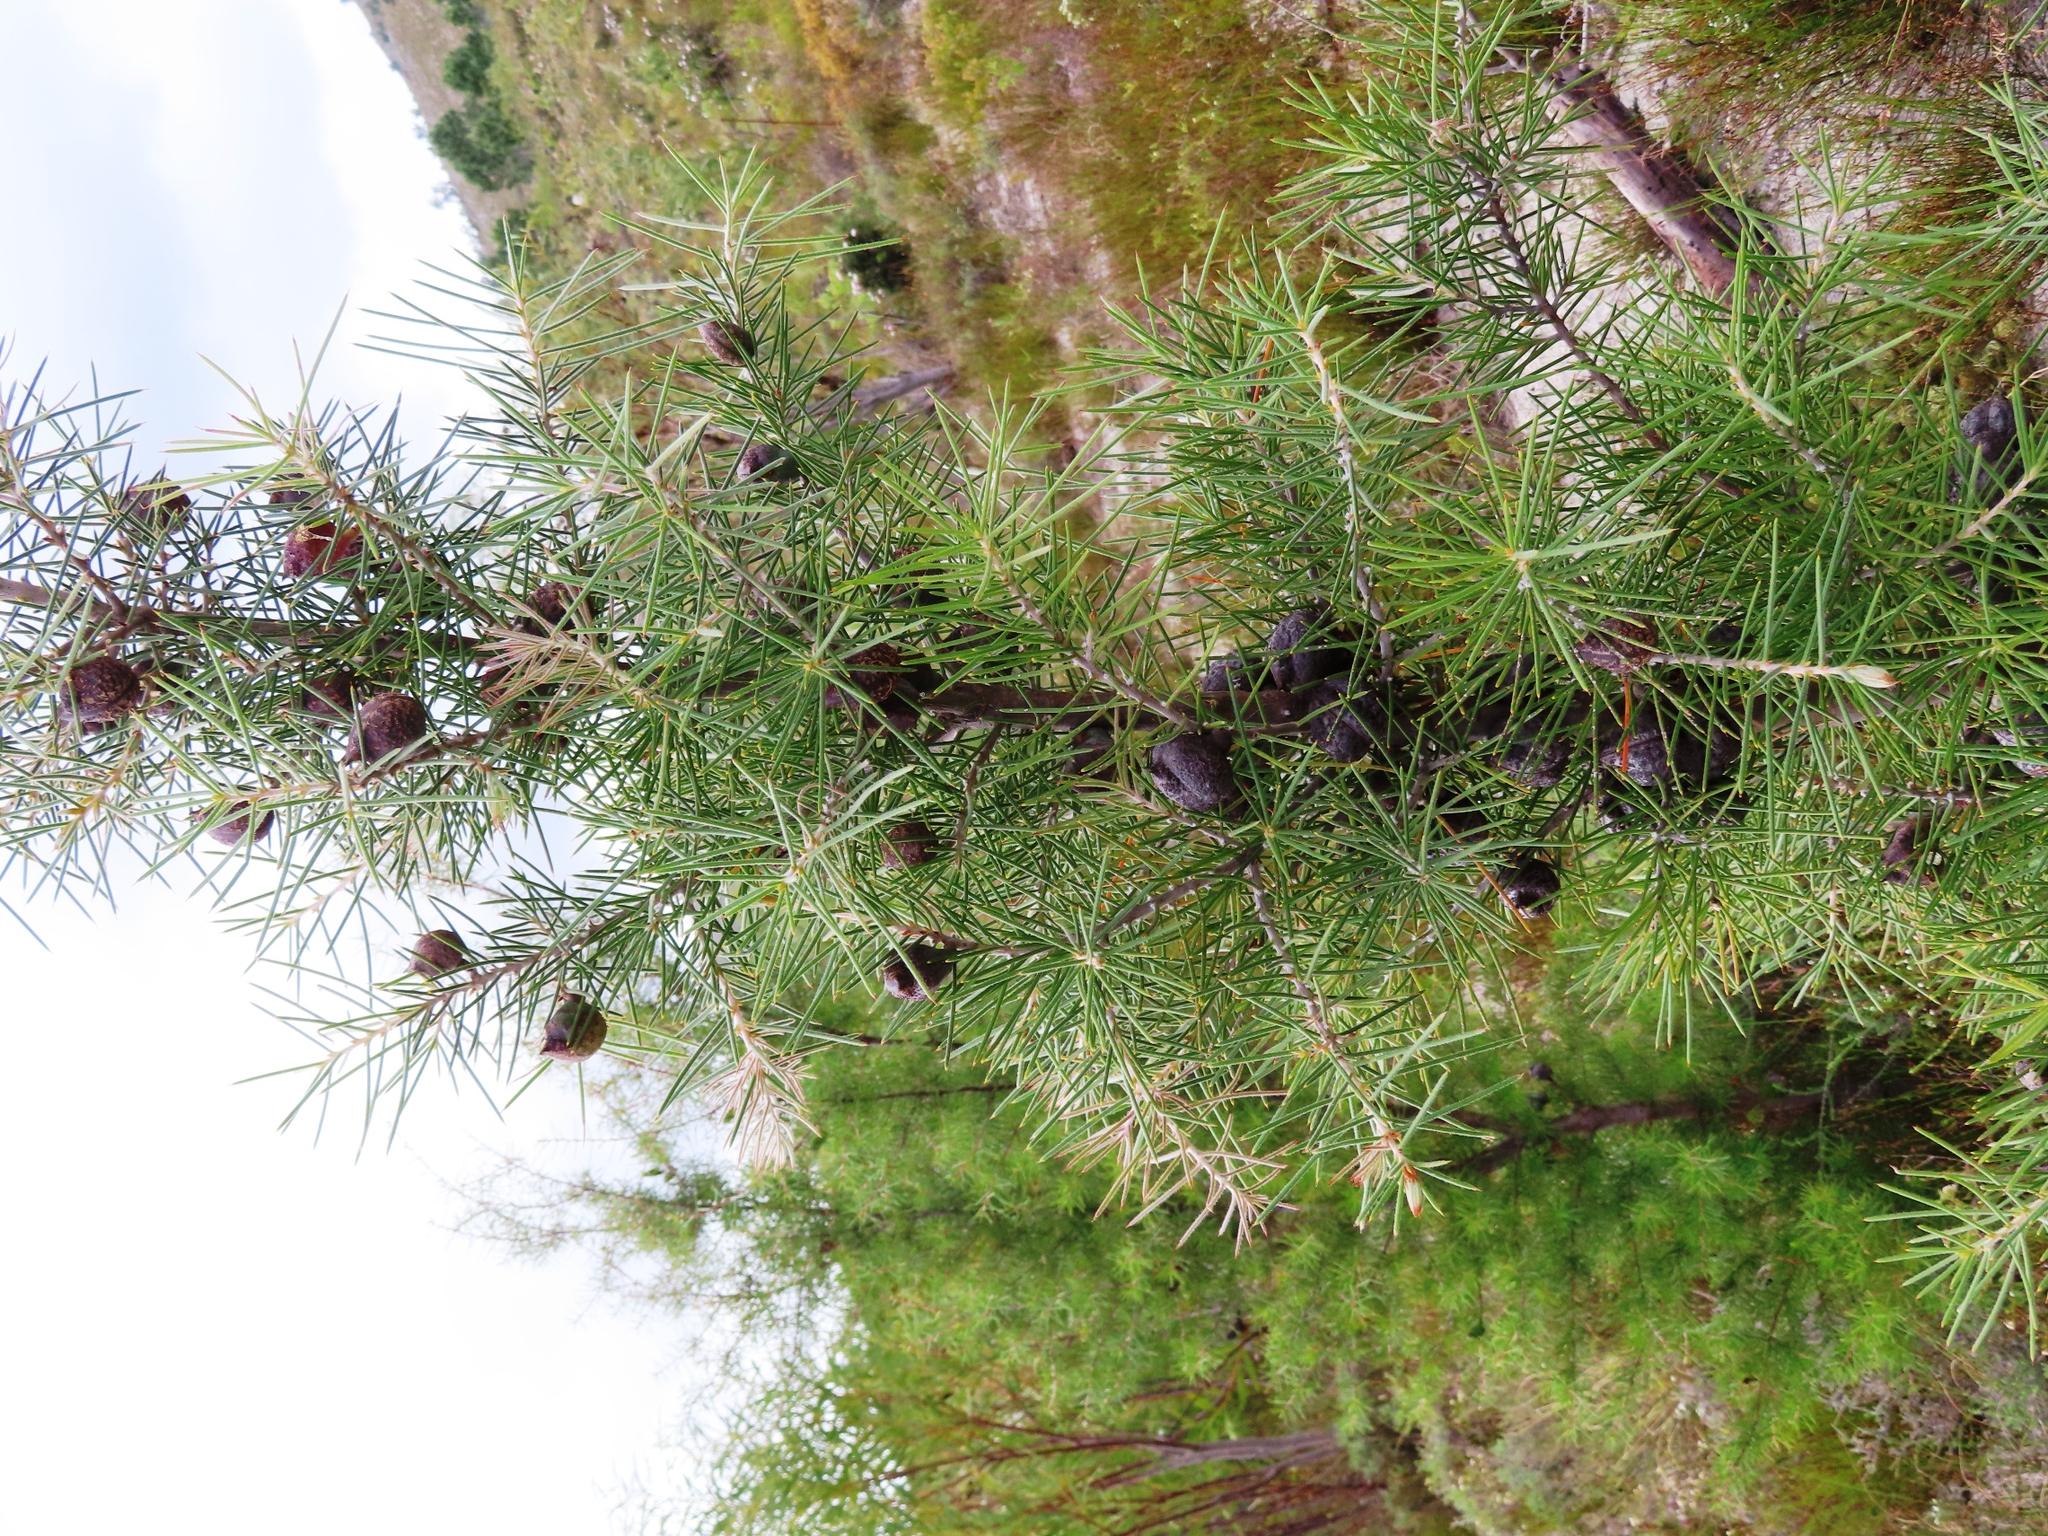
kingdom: Plantae
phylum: Tracheophyta
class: Magnoliopsida
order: Proteales
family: Proteaceae
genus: Hakea
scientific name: Hakea gibbosa
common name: Rock hakea
